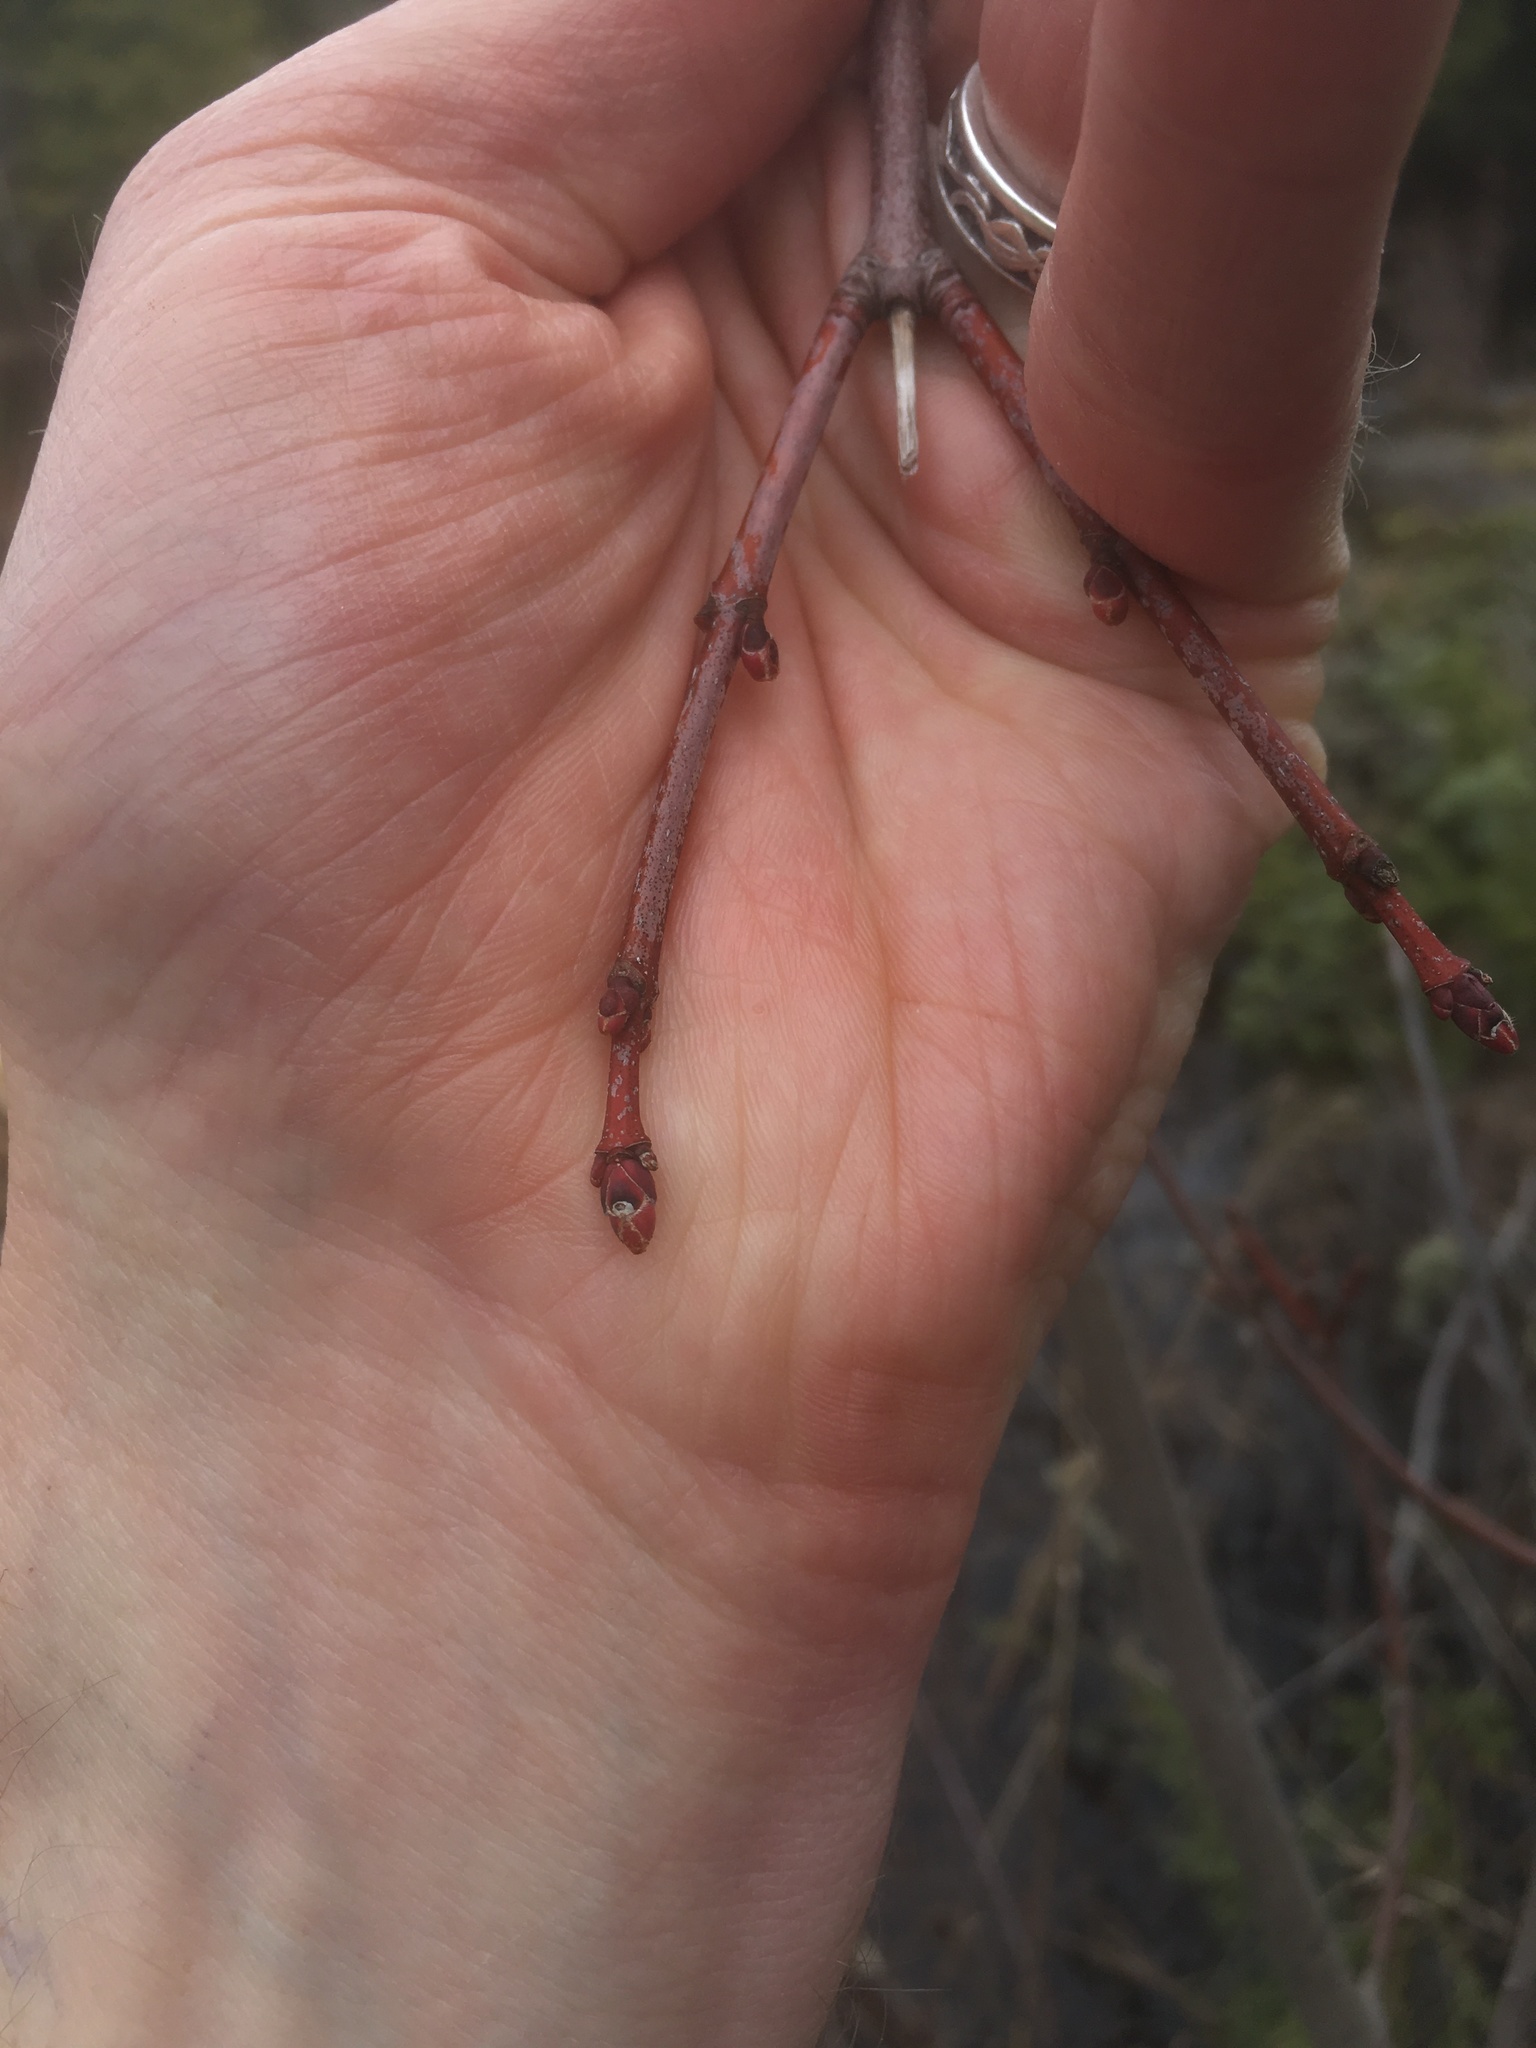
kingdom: Plantae
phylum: Tracheophyta
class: Magnoliopsida
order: Sapindales
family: Sapindaceae
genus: Acer
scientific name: Acer rubrum
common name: Red maple
